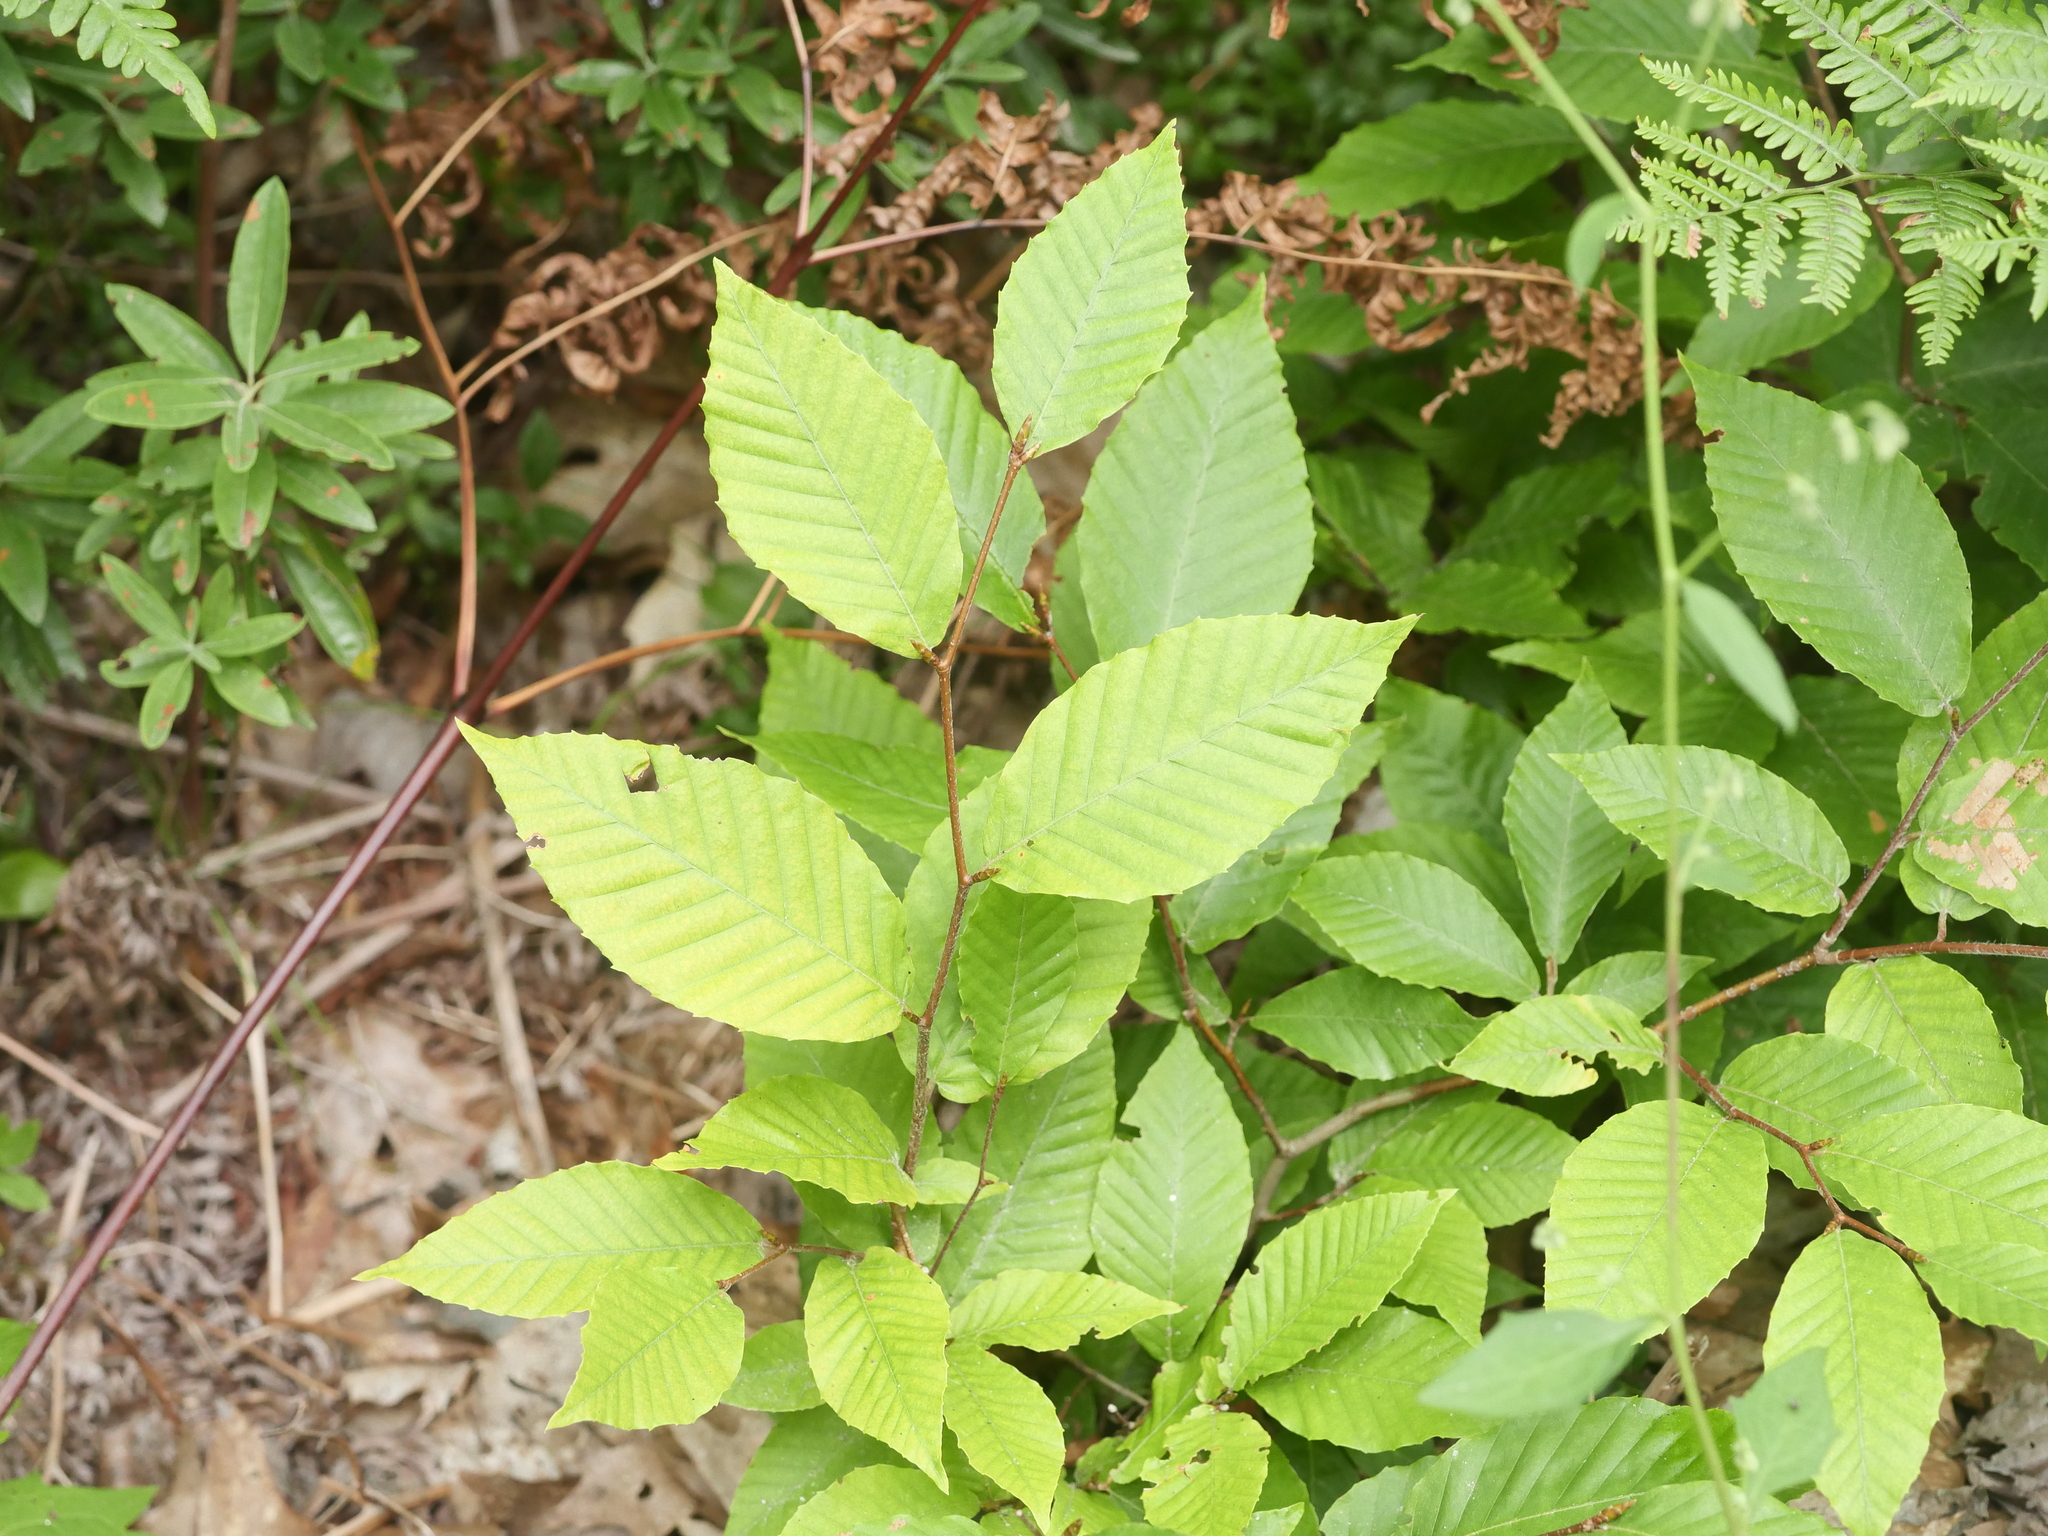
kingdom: Plantae
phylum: Tracheophyta
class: Magnoliopsida
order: Fagales
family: Fagaceae
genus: Fagus
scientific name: Fagus grandifolia
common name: American beech
